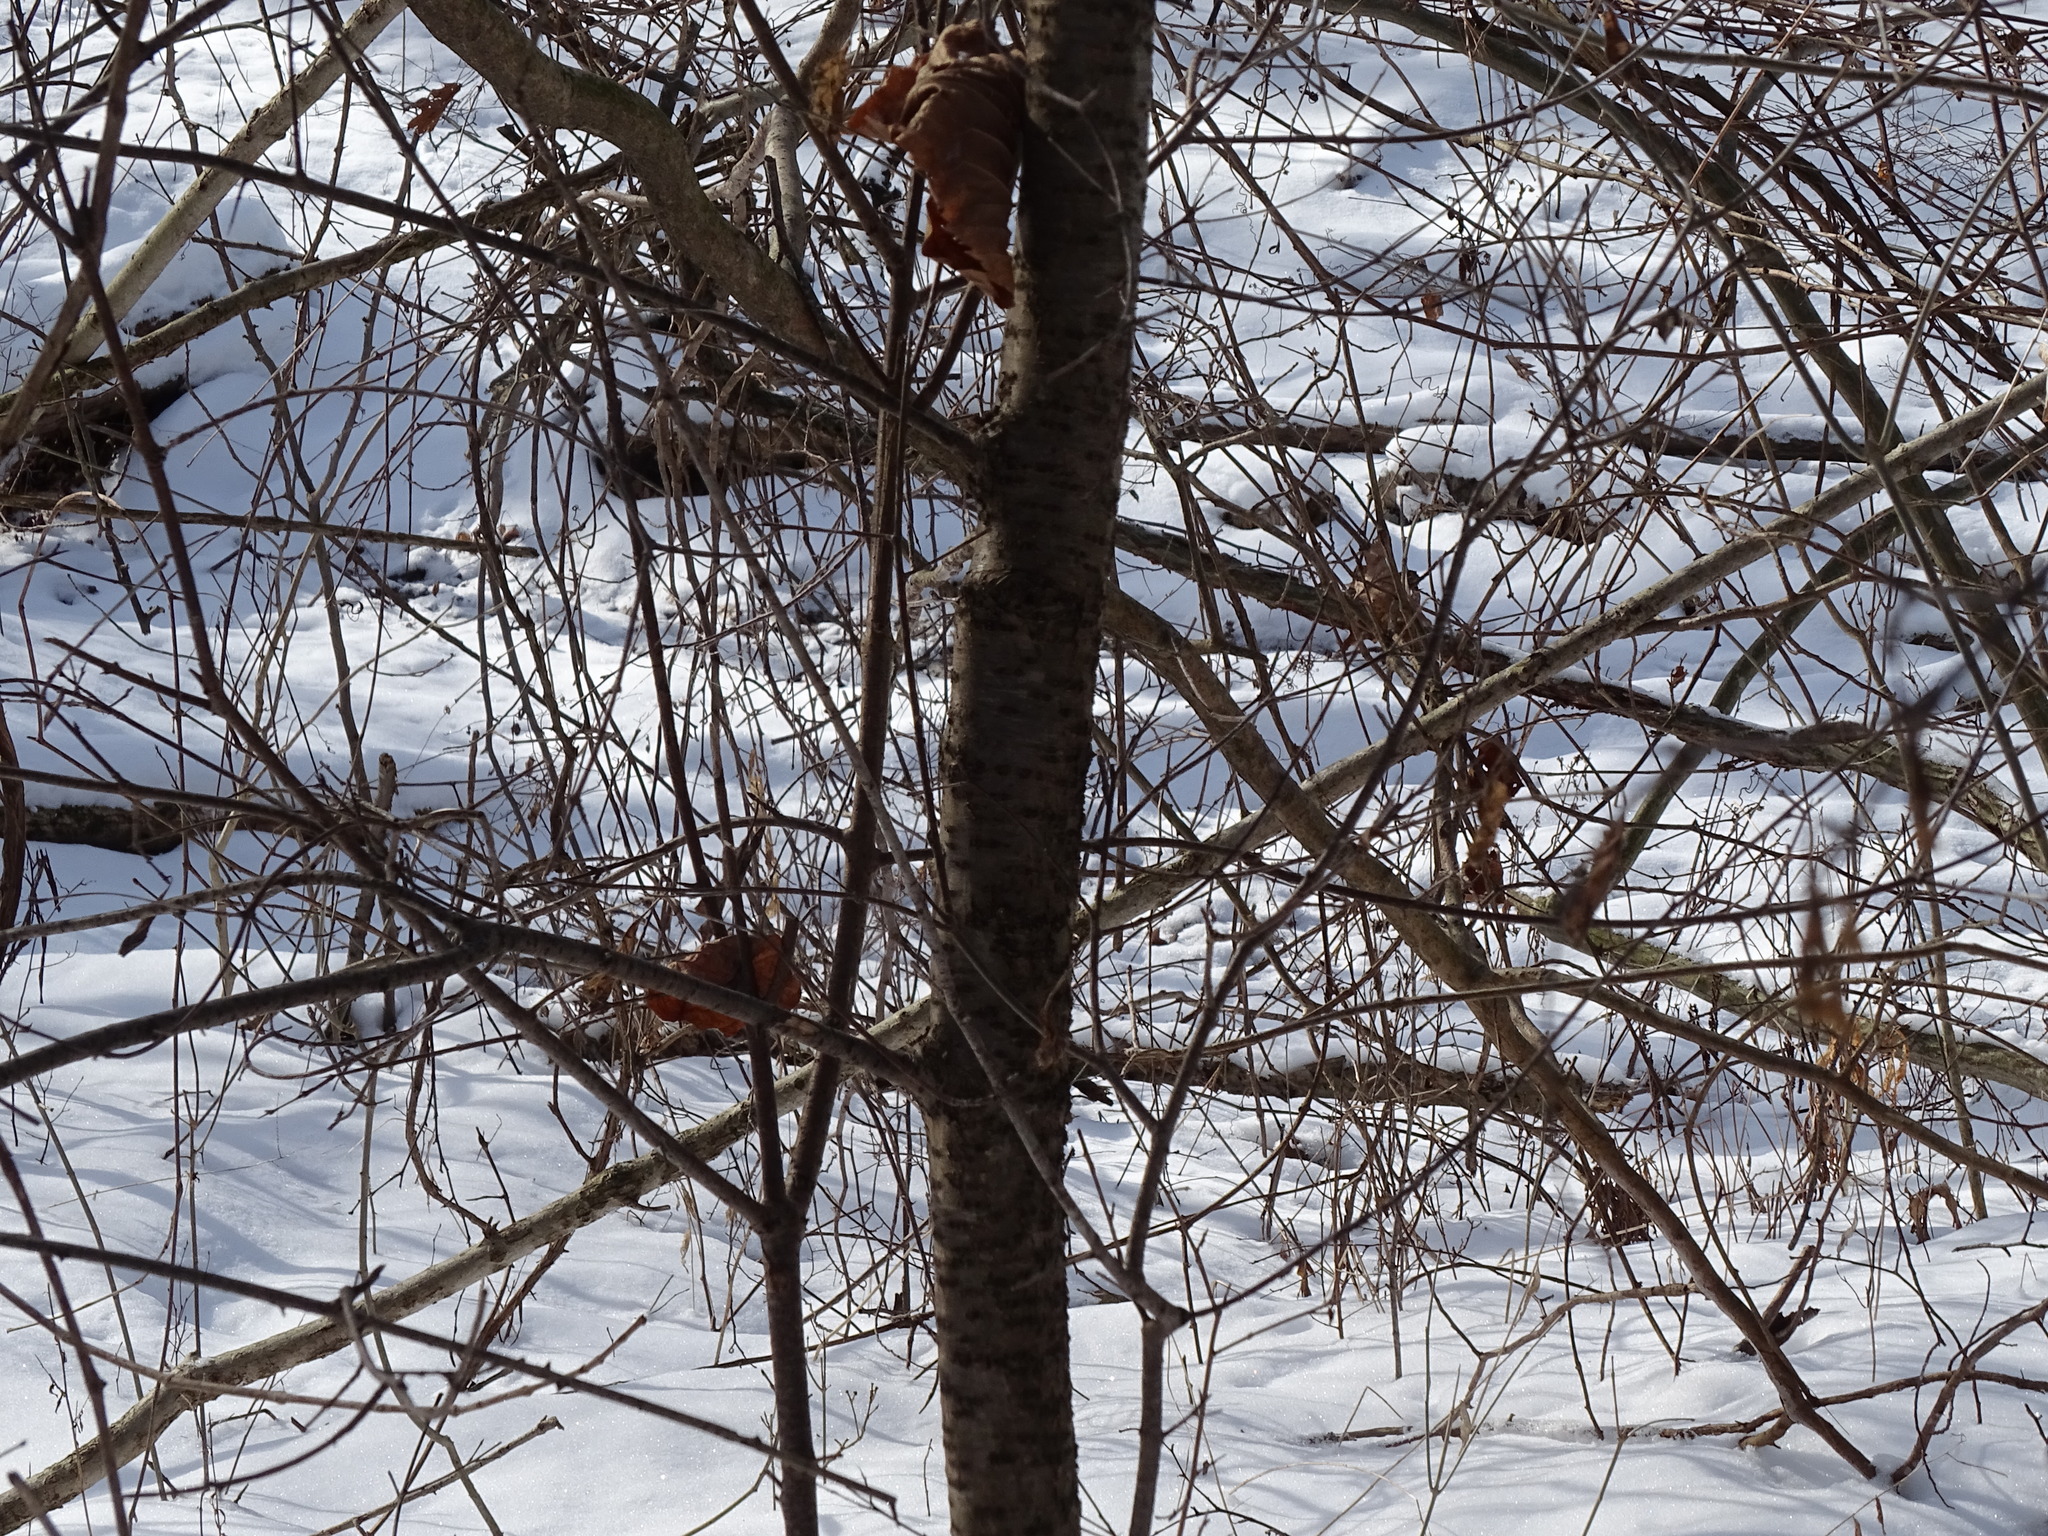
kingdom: Plantae
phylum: Tracheophyta
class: Magnoliopsida
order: Rosales
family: Rhamnaceae
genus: Rhamnus
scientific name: Rhamnus cathartica
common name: Common buckthorn
